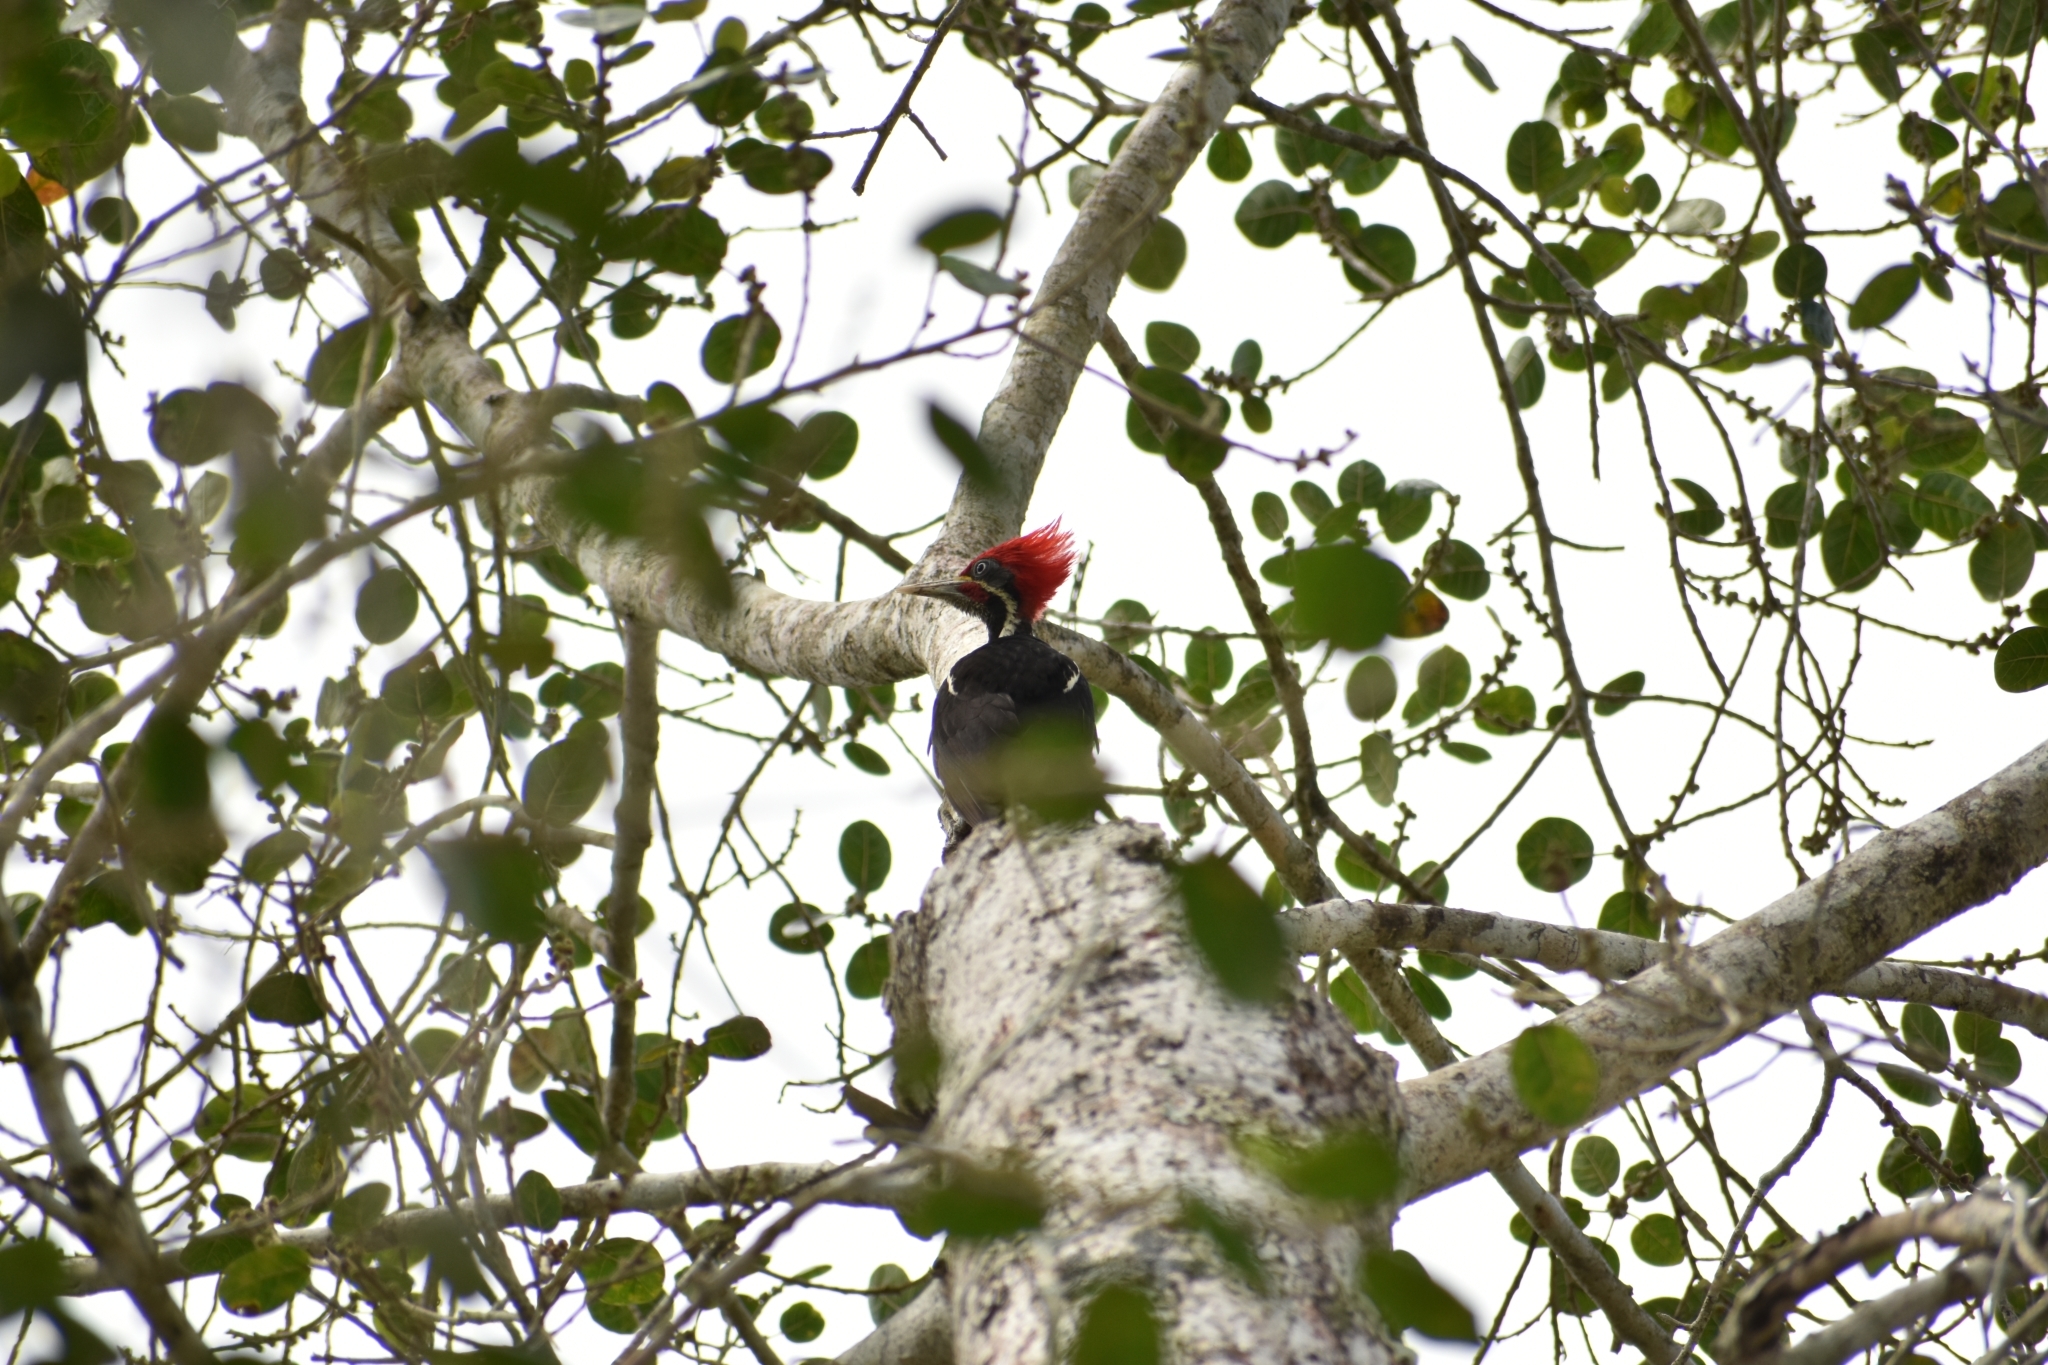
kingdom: Animalia
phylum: Chordata
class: Aves
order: Piciformes
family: Picidae
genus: Dryocopus
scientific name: Dryocopus lineatus
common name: Lineated woodpecker
